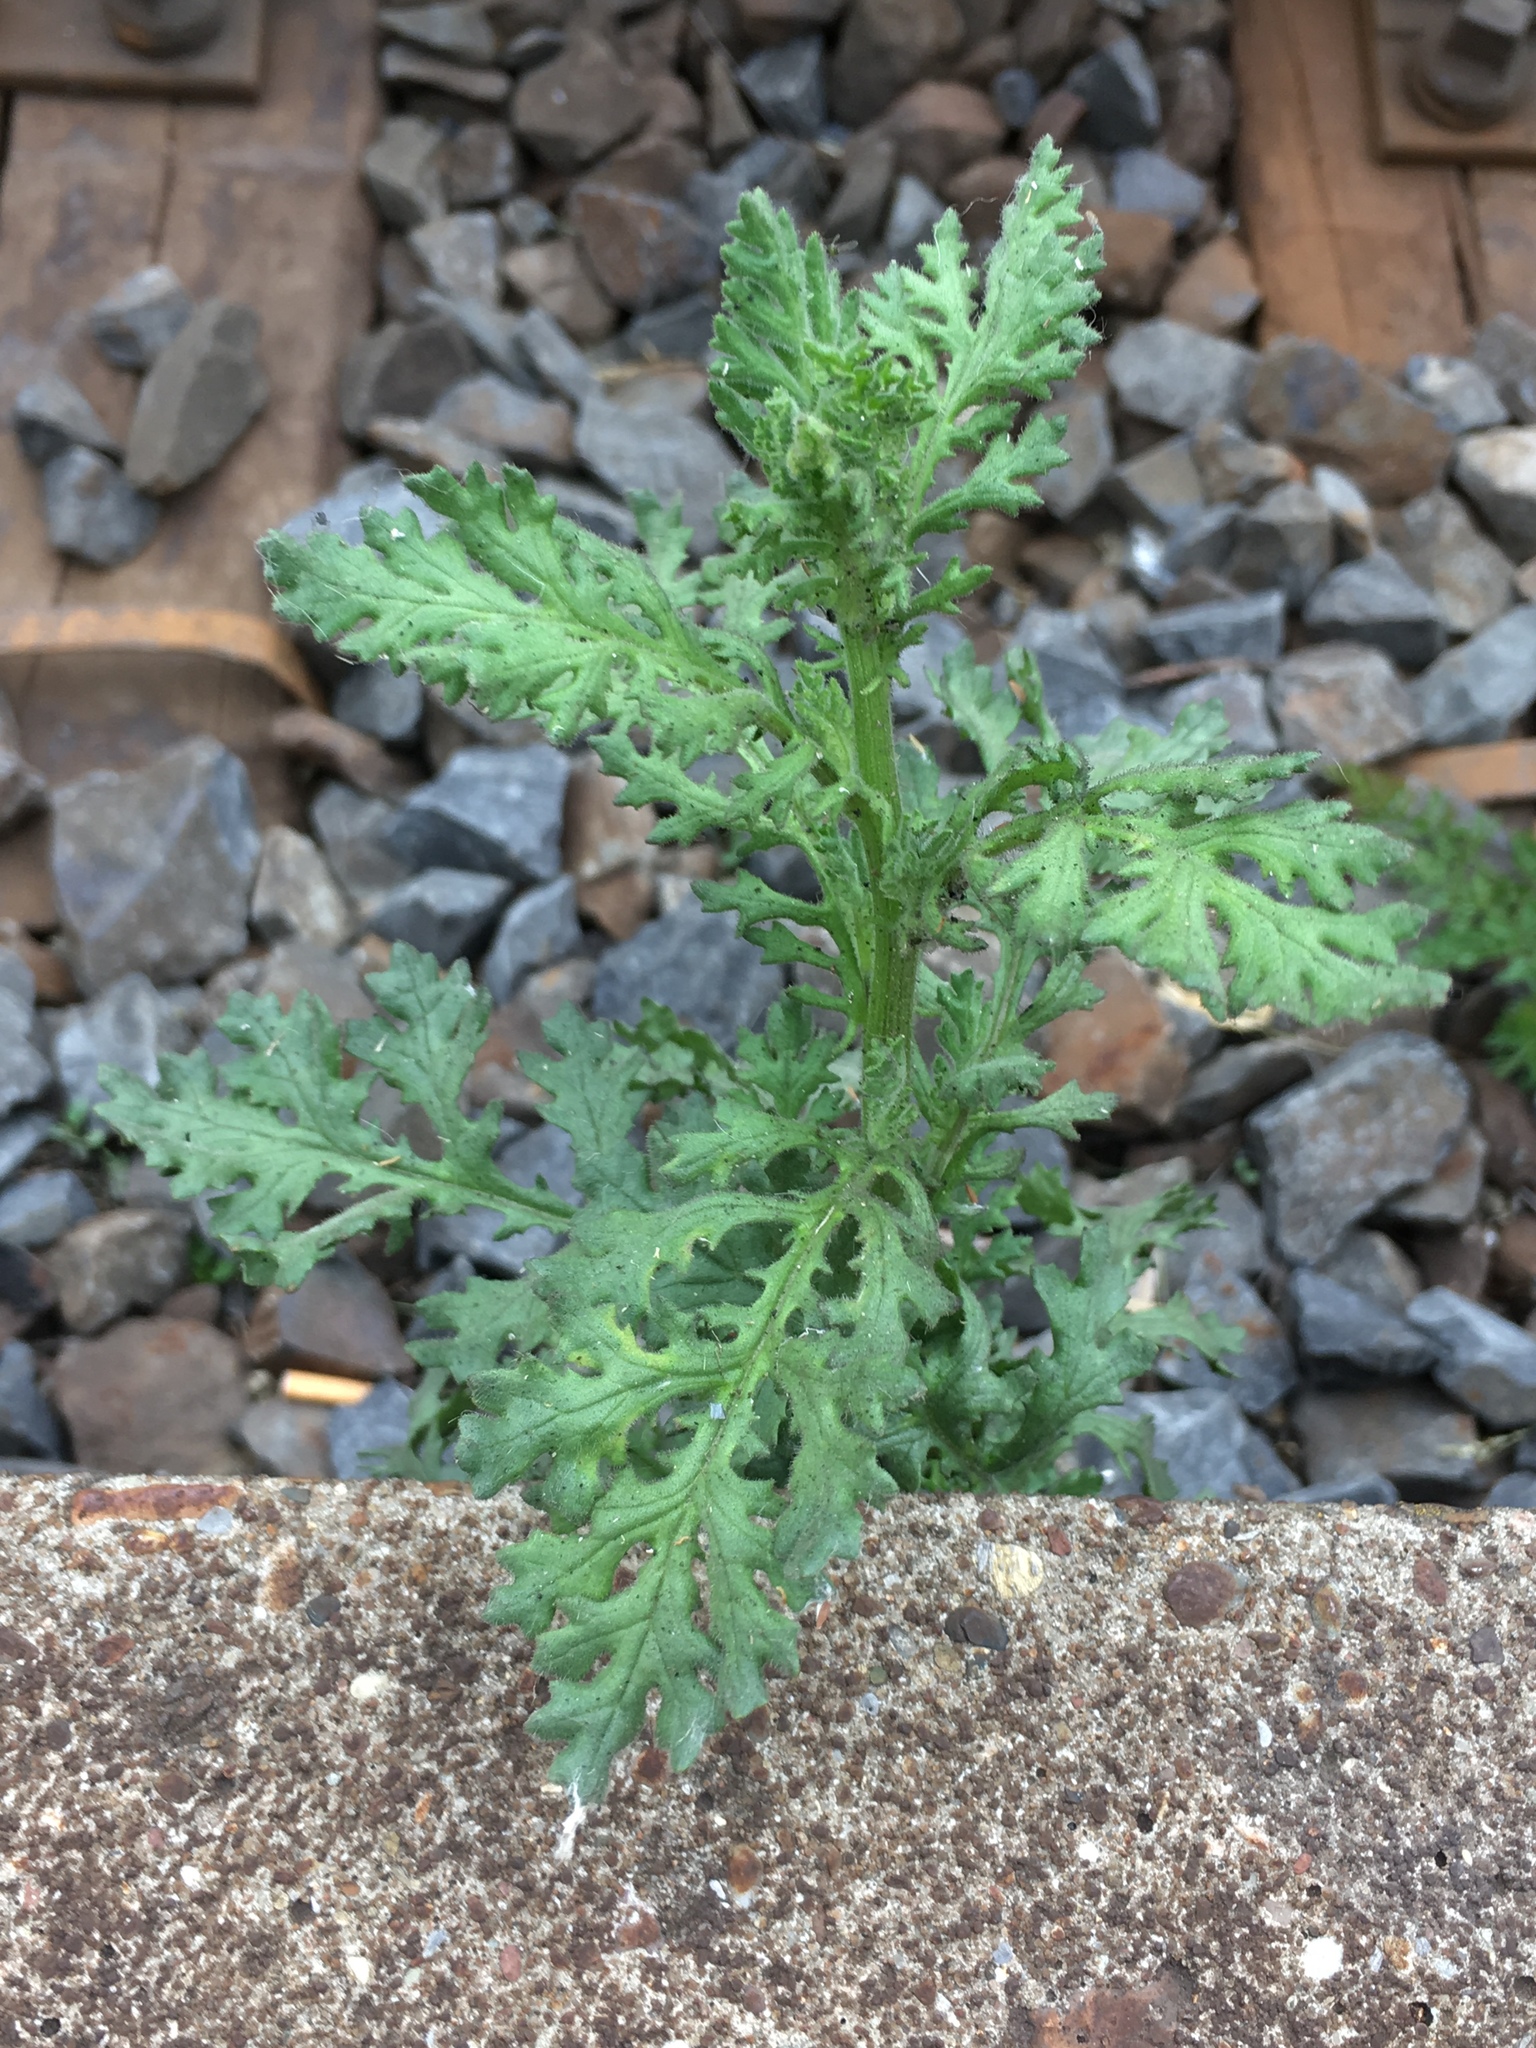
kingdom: Plantae
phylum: Tracheophyta
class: Magnoliopsida
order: Asterales
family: Asteraceae
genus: Senecio
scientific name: Senecio viscosus
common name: Sticky groundsel
